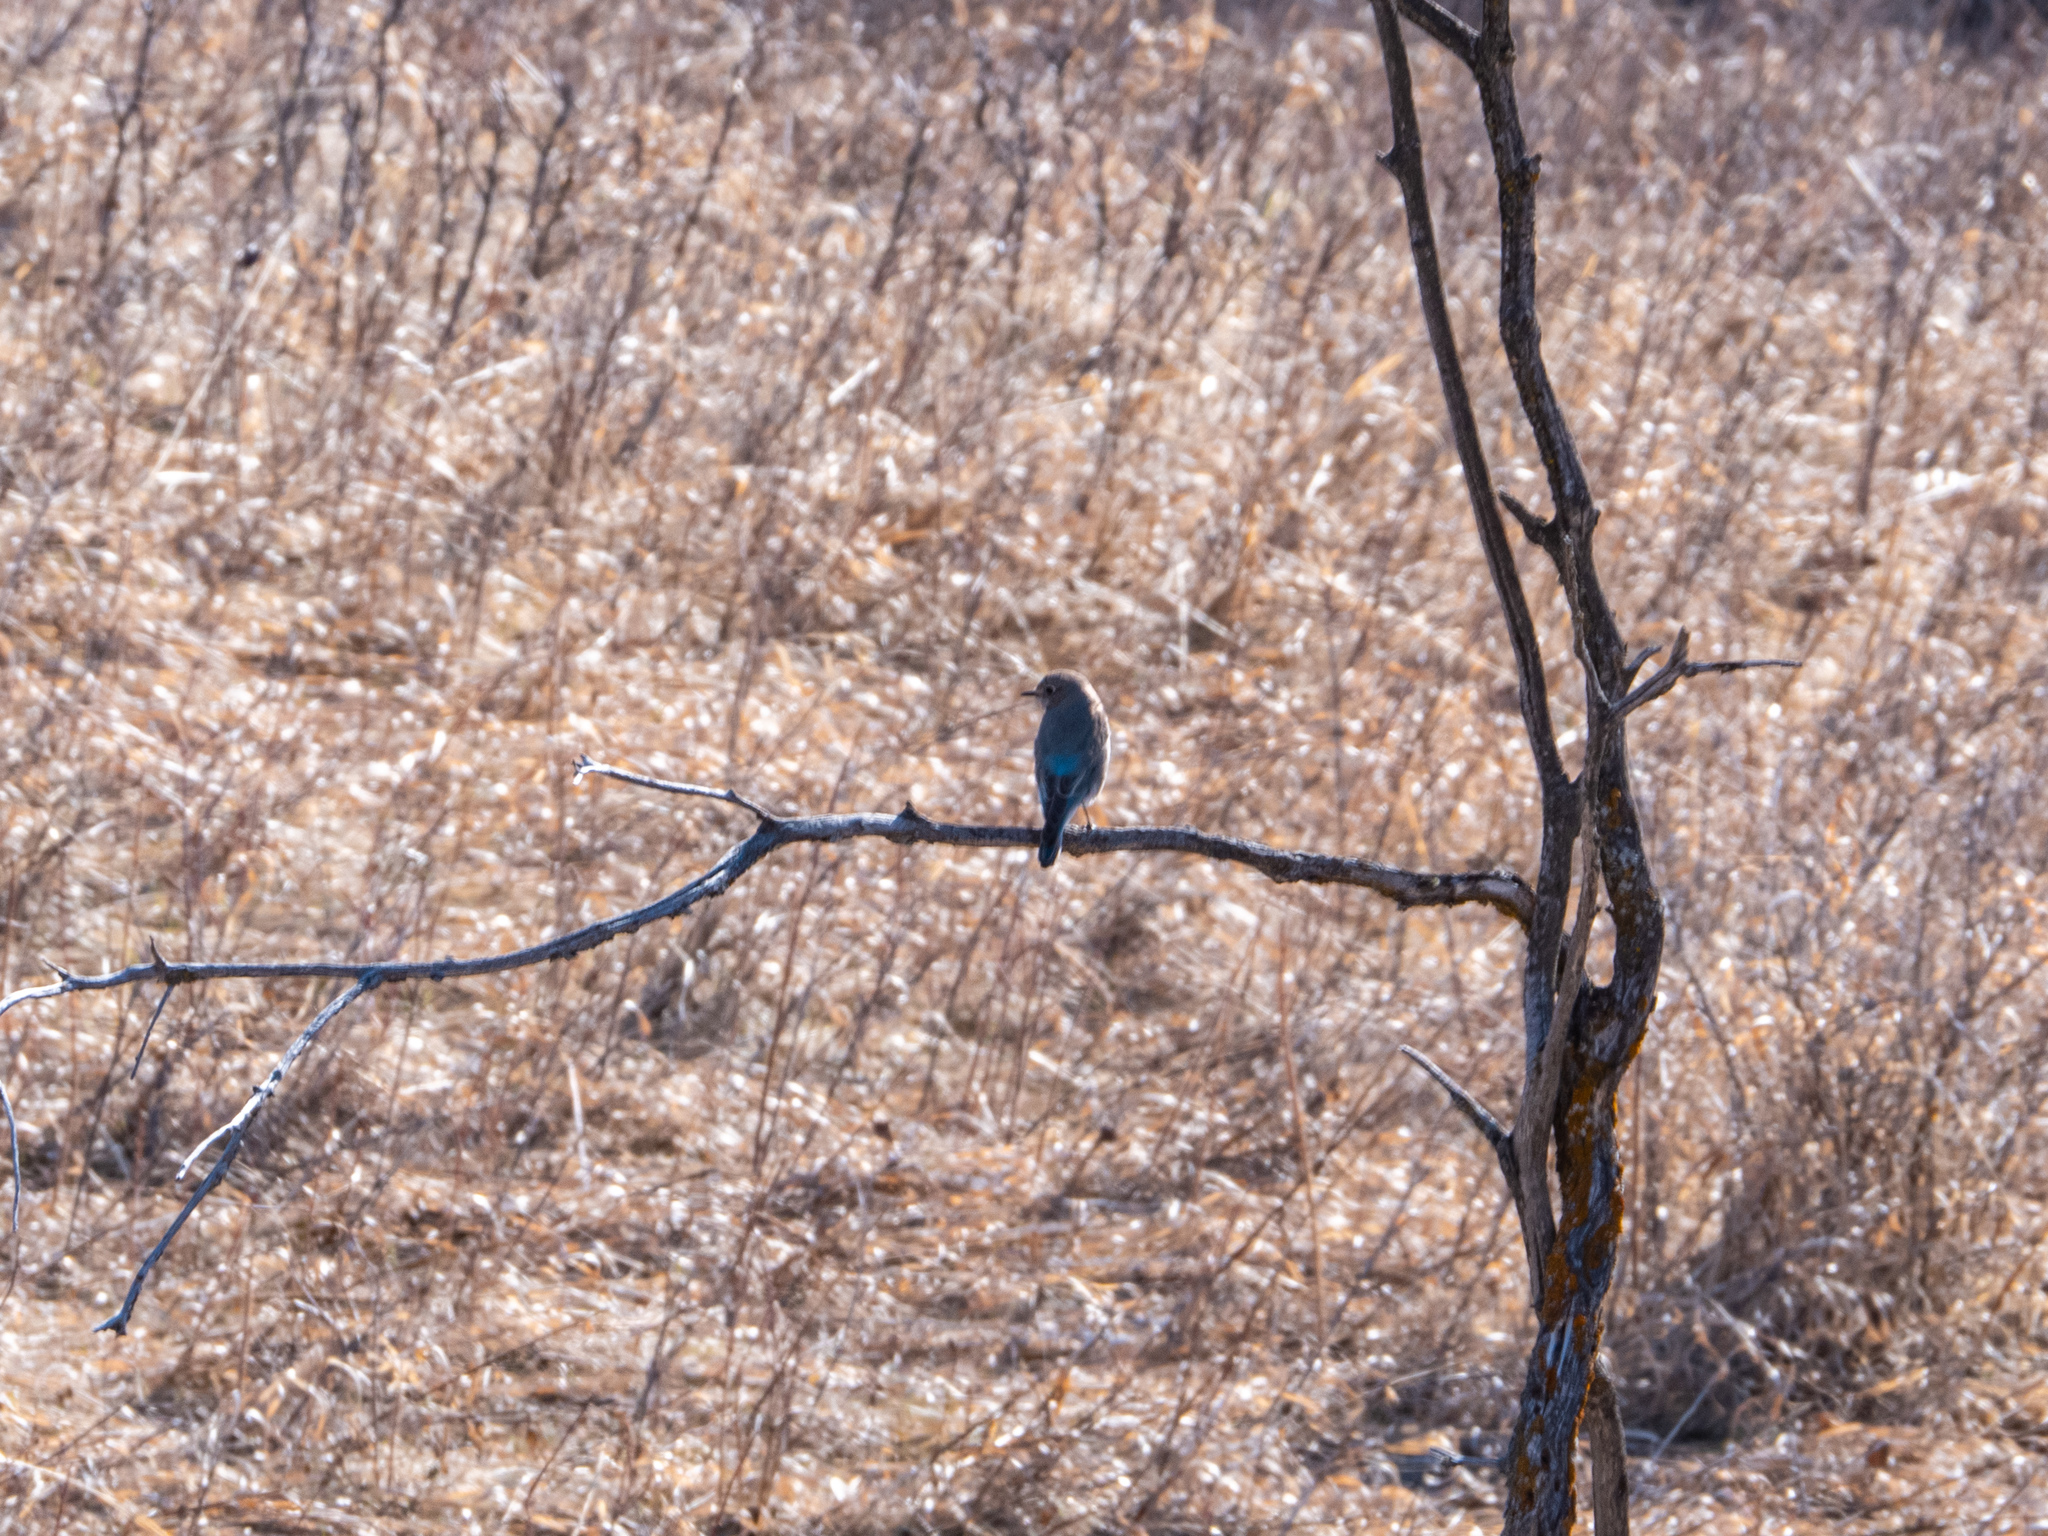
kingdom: Animalia
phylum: Chordata
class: Aves
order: Passeriformes
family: Turdidae
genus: Sialia
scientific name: Sialia currucoides
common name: Mountain bluebird
